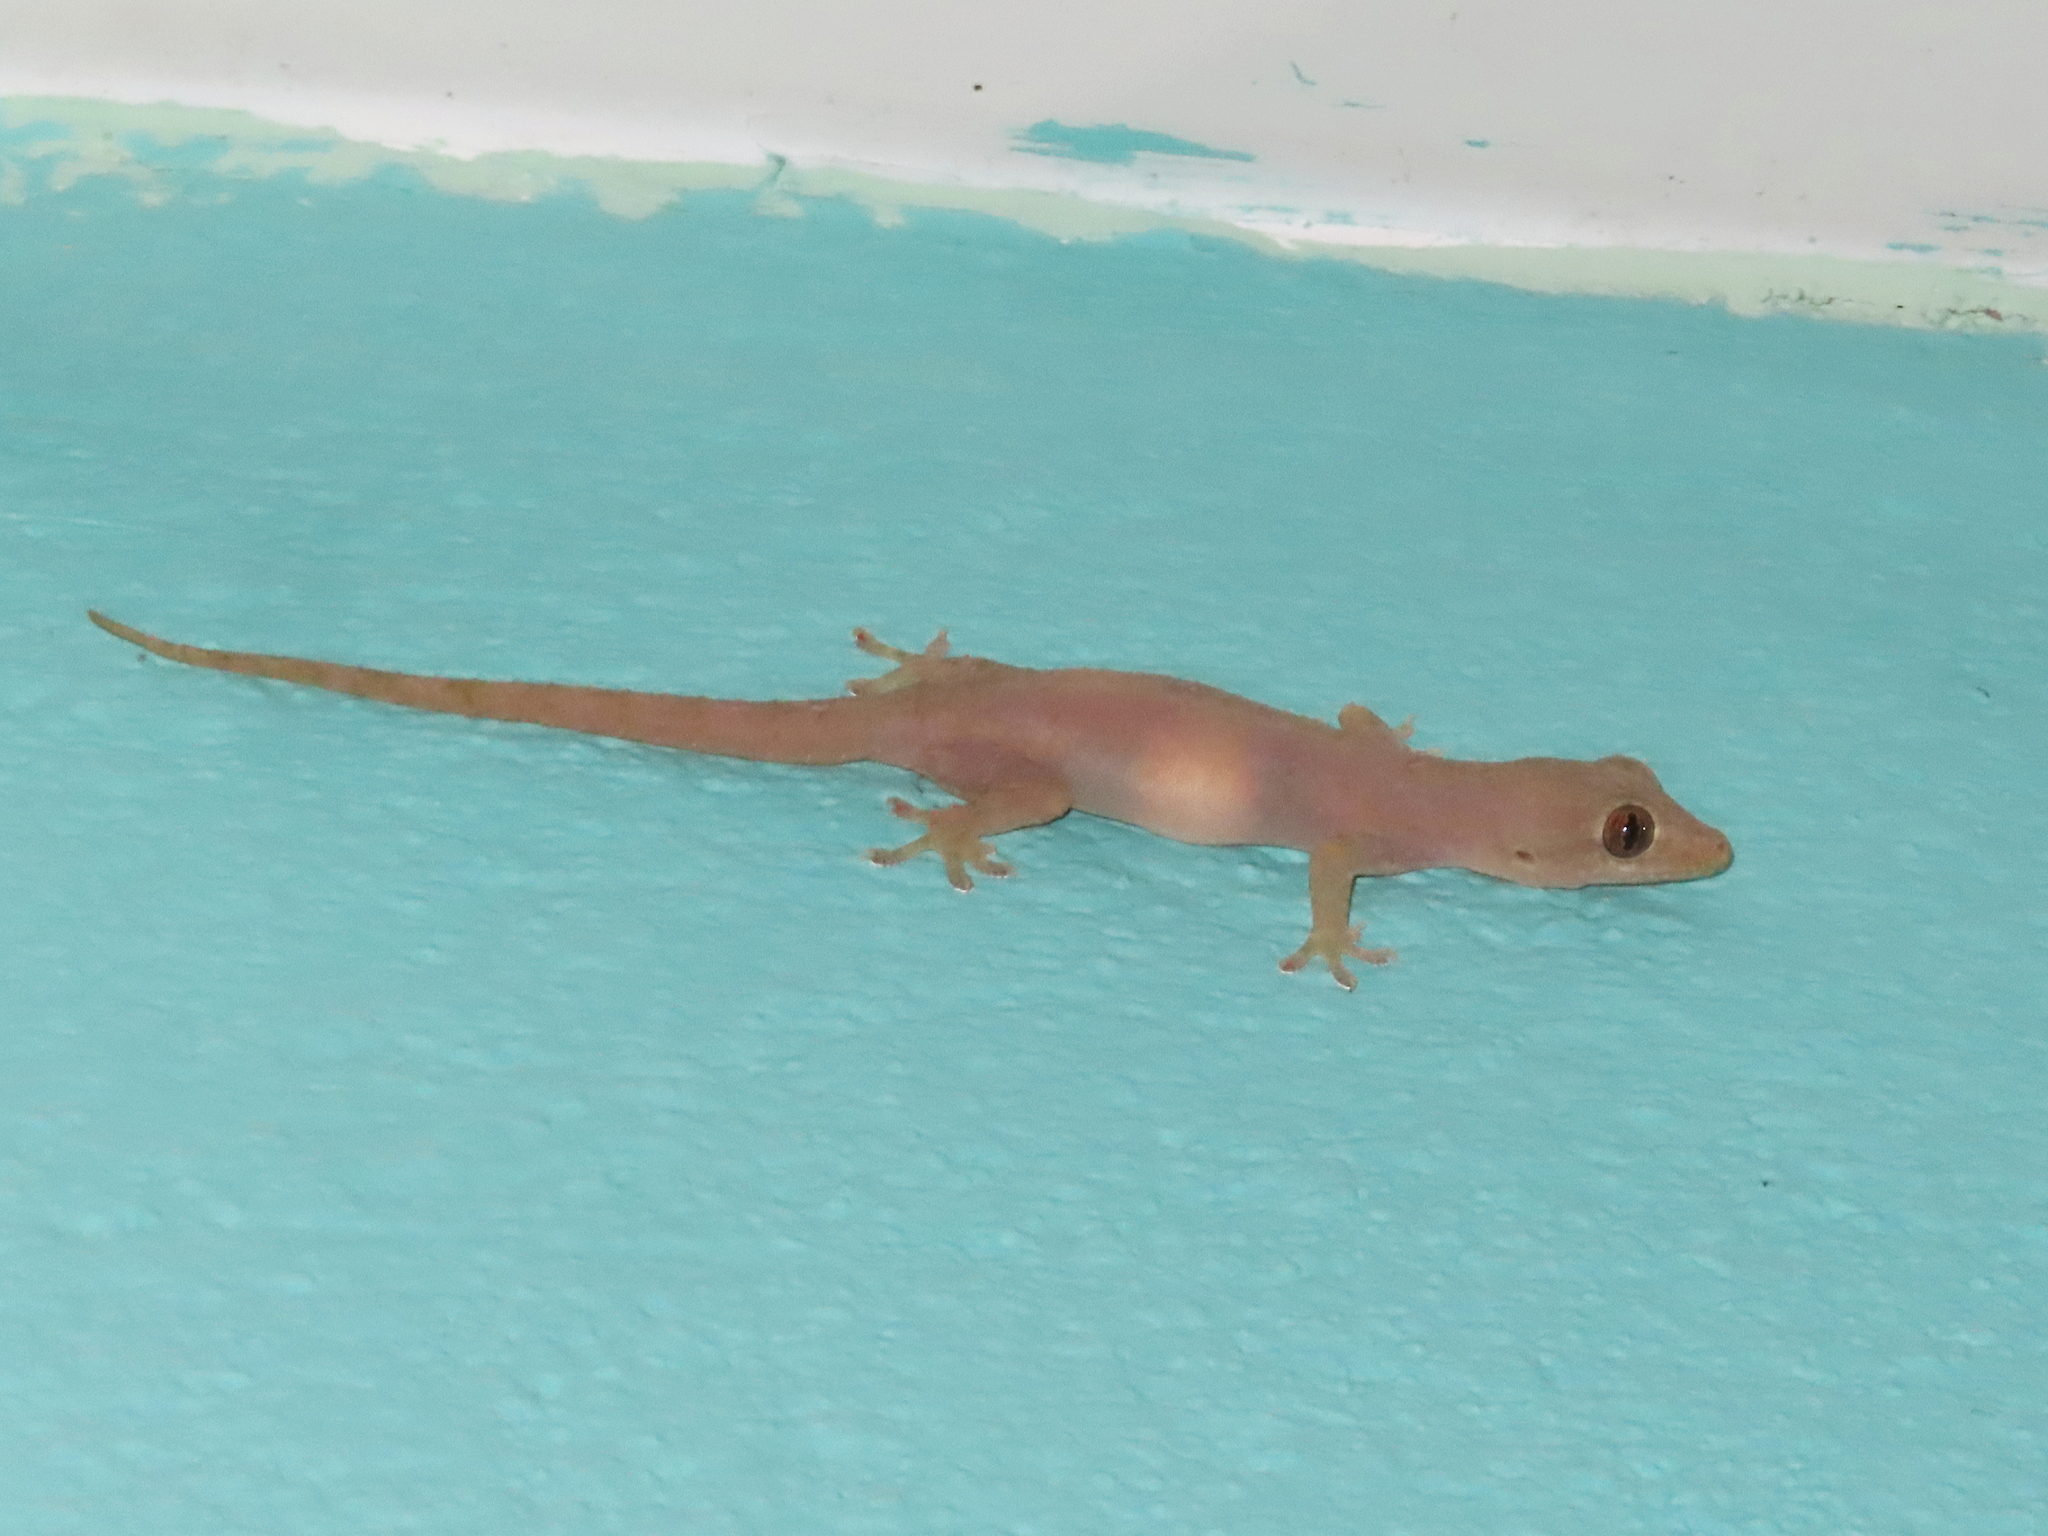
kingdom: Animalia
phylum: Chordata
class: Squamata
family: Gekkonidae
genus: Hemidactylus
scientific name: Hemidactylus frenatus
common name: Common house gecko
